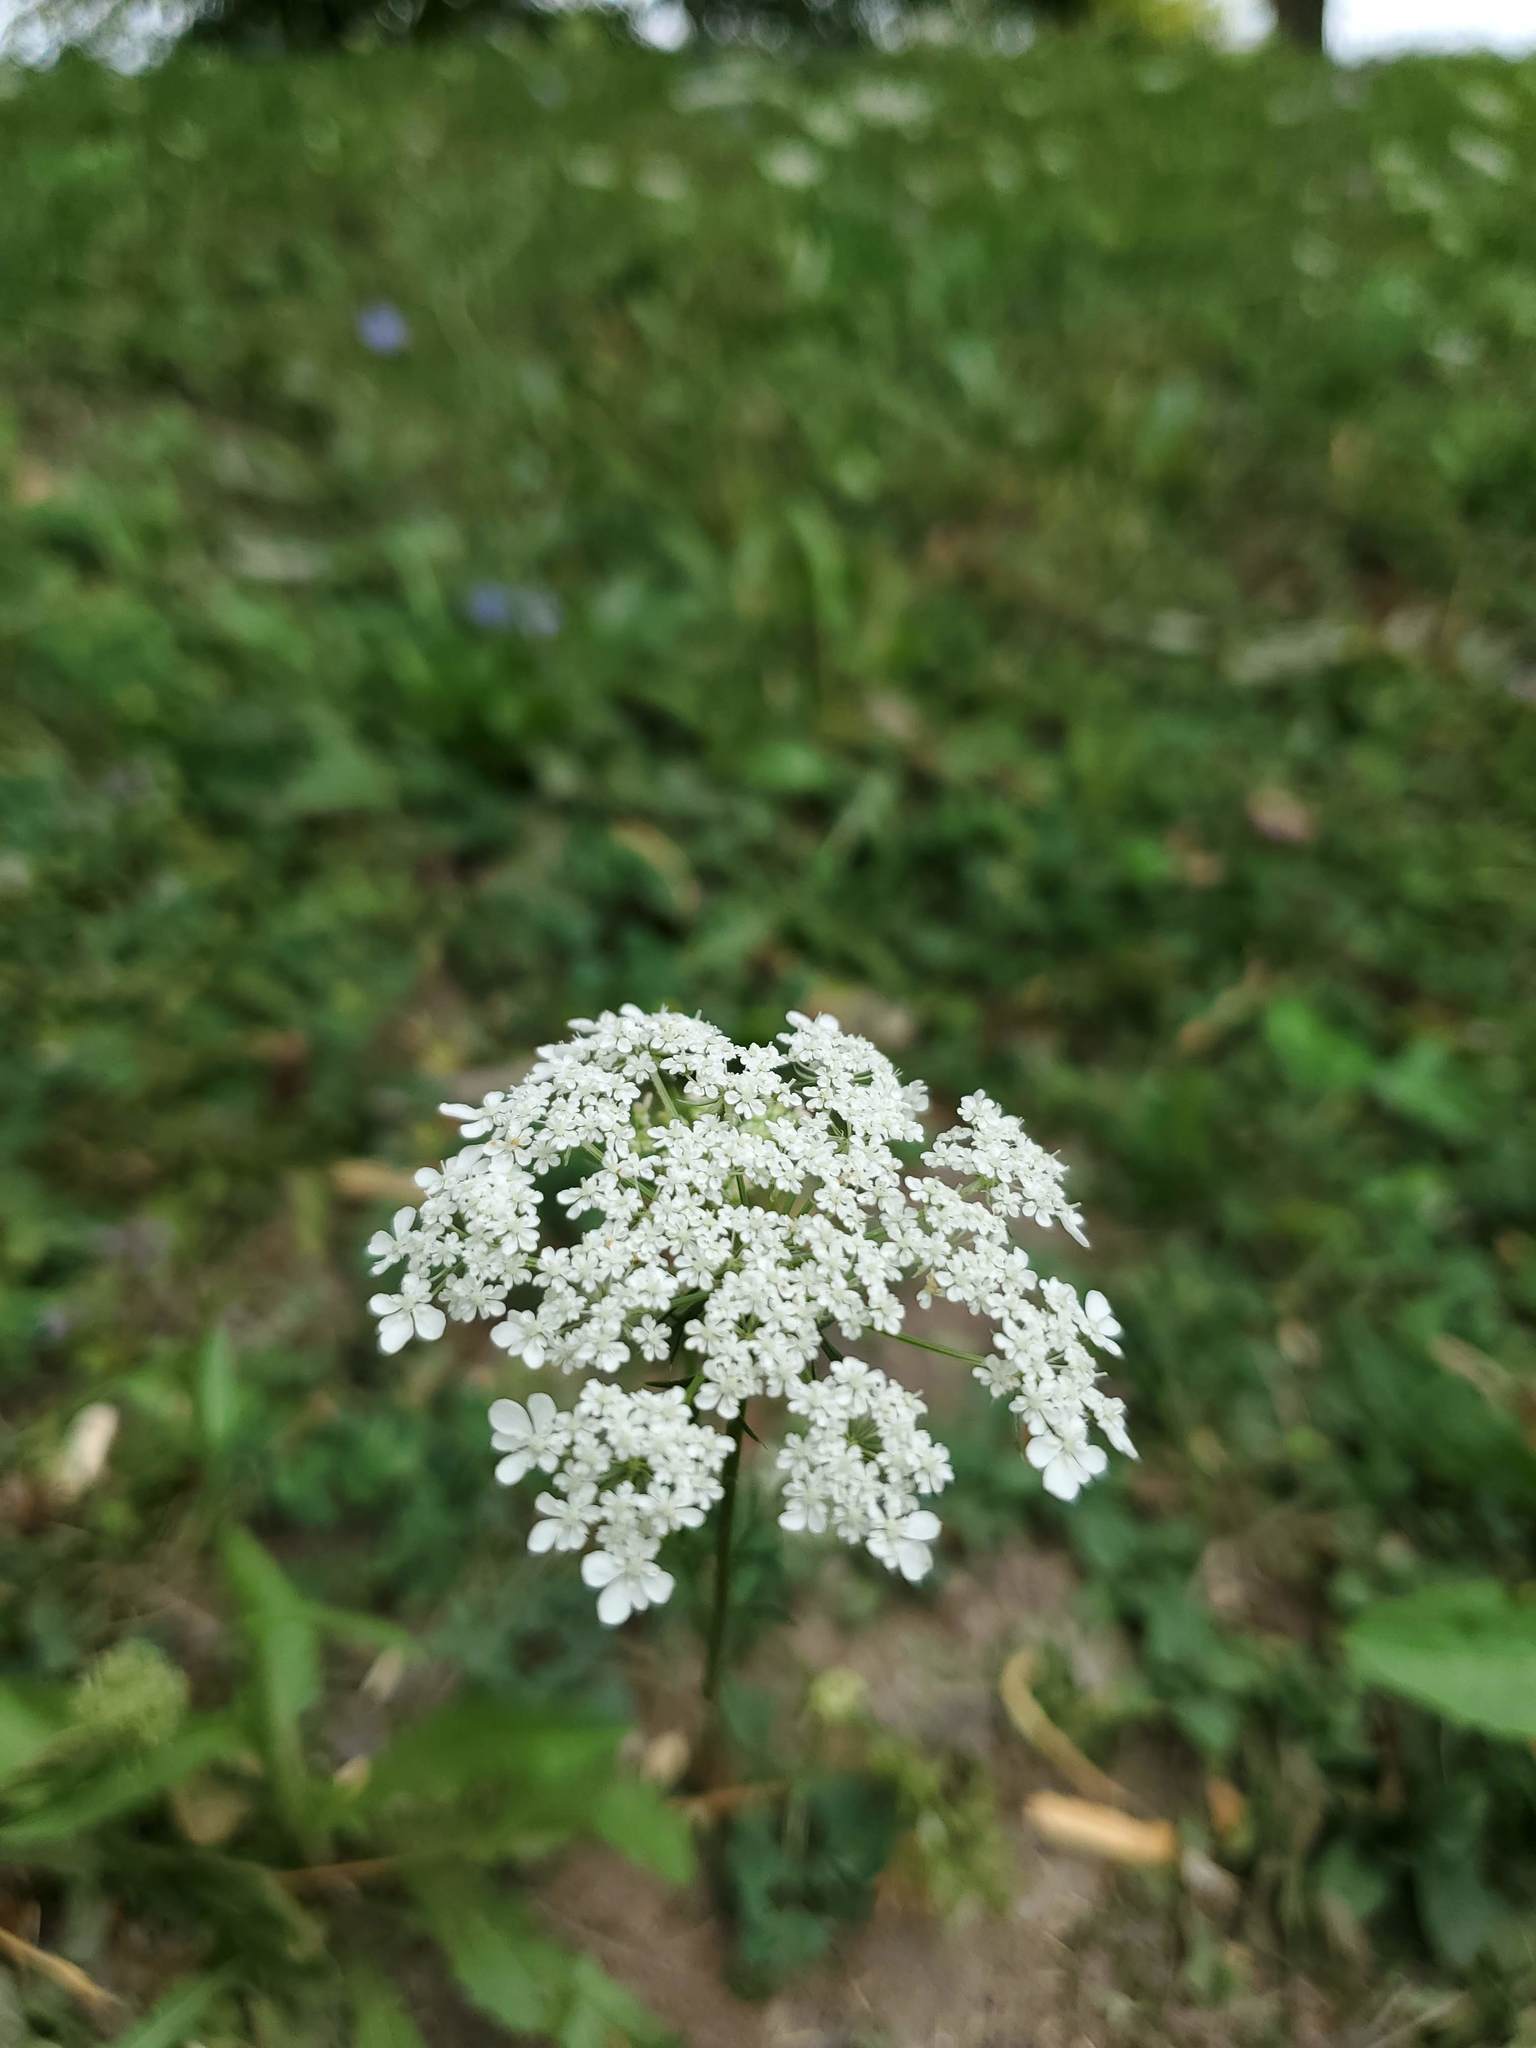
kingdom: Plantae
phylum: Tracheophyta
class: Magnoliopsida
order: Apiales
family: Apiaceae
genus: Daucus
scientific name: Daucus carota
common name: Wild carrot
